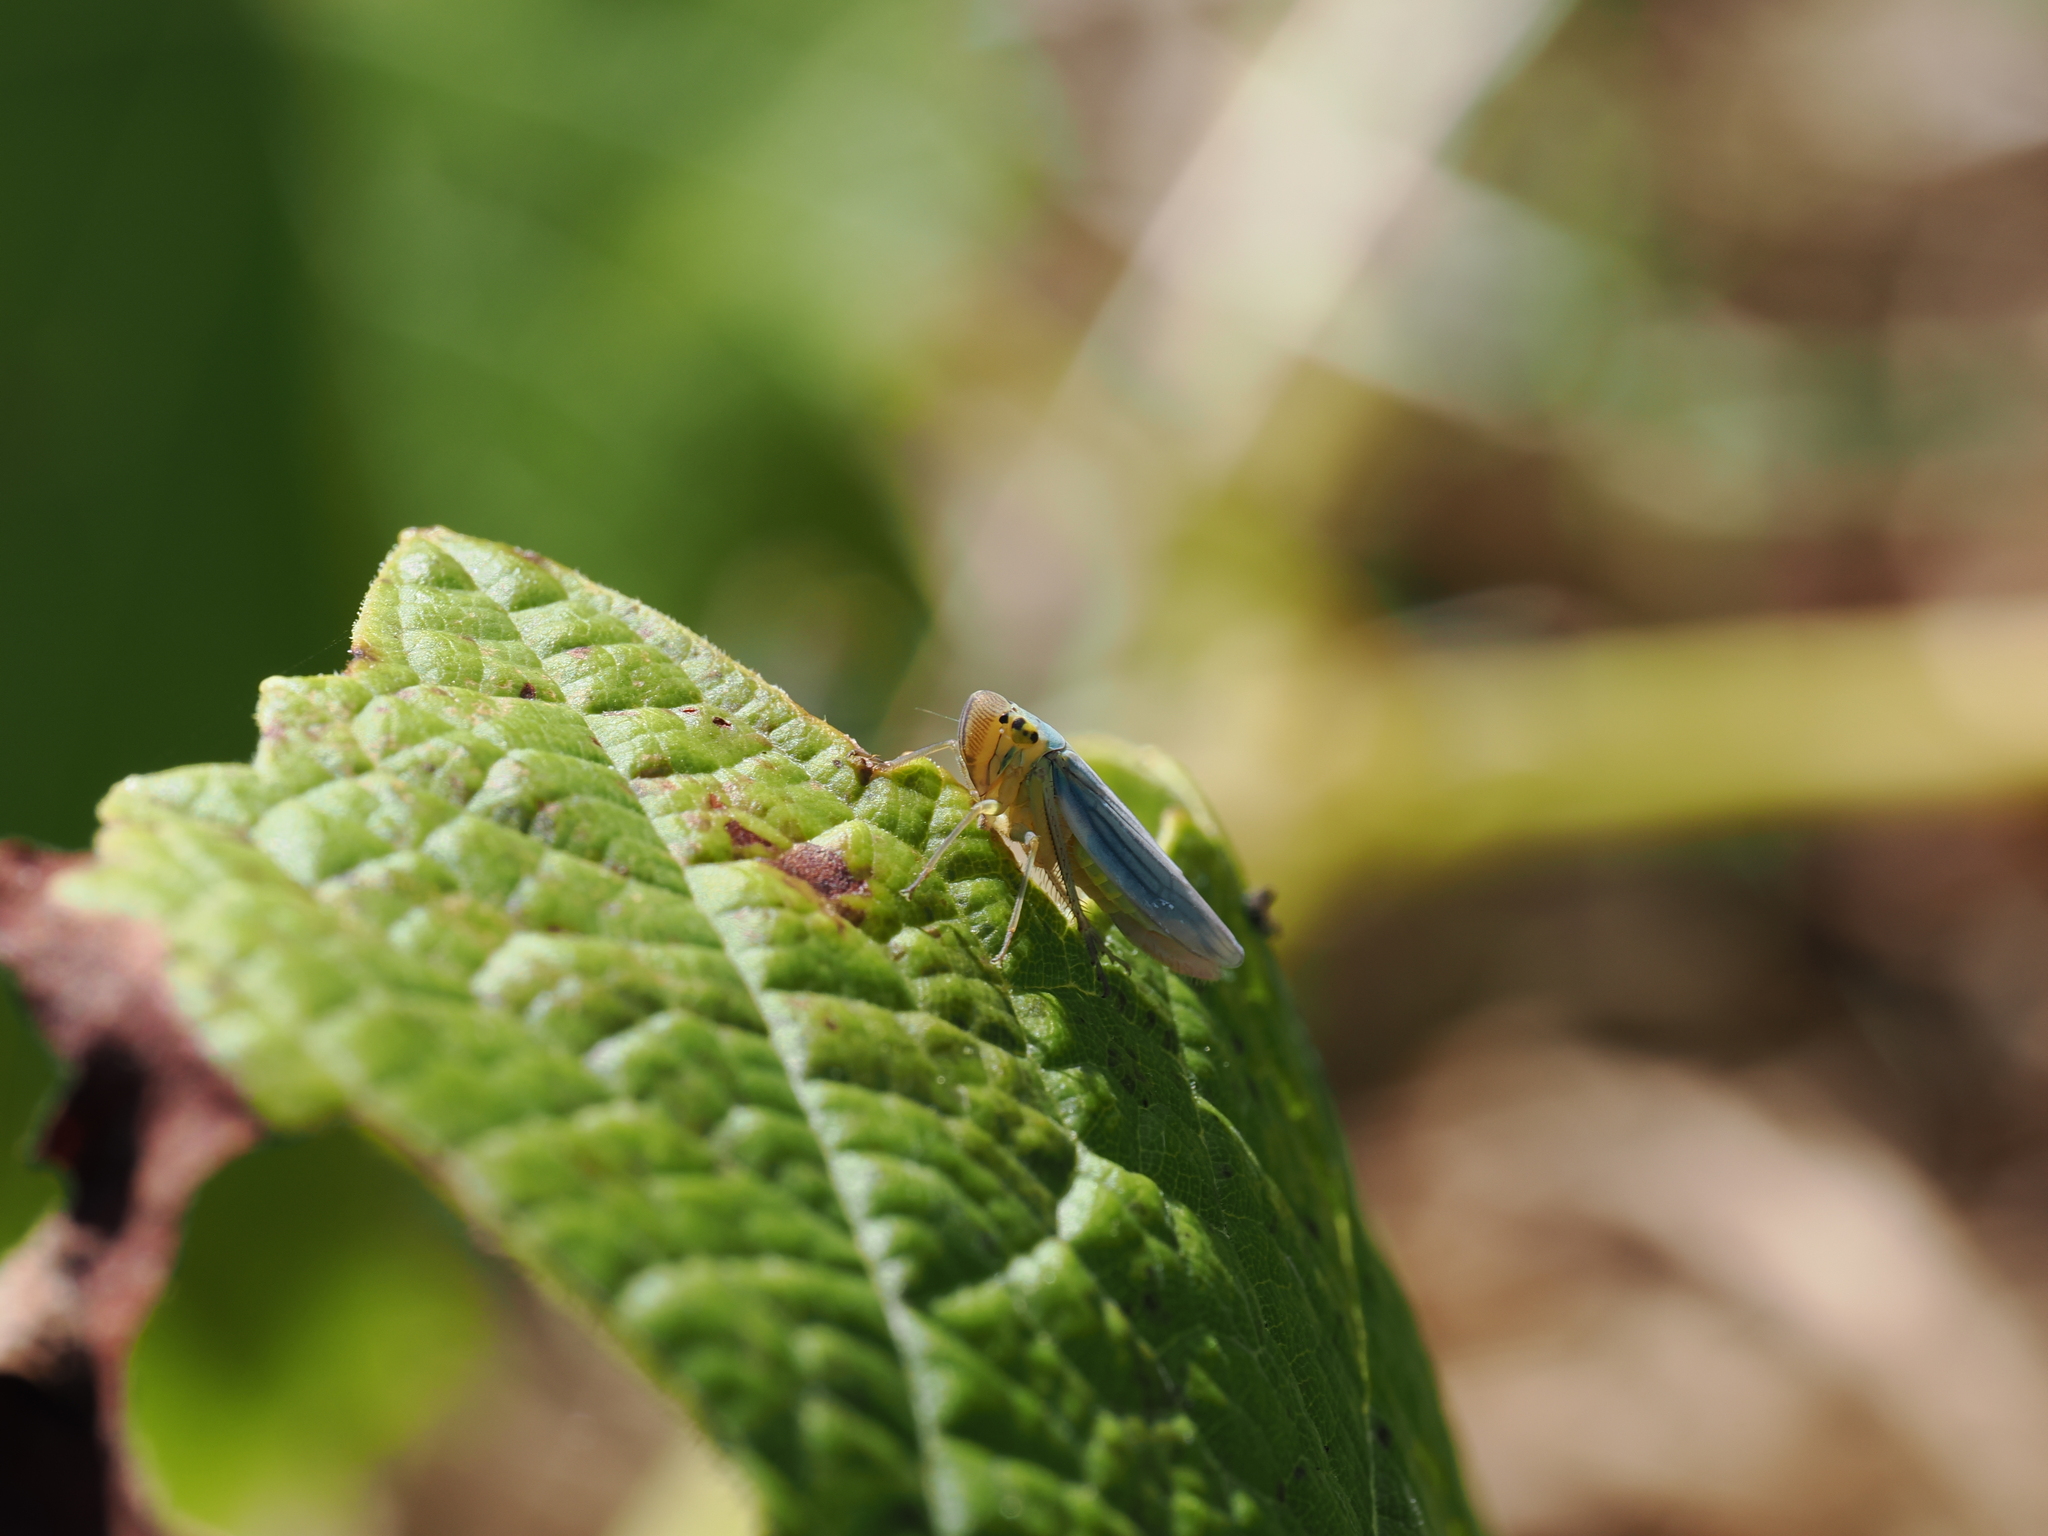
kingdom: Animalia
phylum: Arthropoda
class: Insecta
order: Hemiptera
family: Cicadellidae
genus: Cicadella
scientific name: Cicadella viridis
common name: Leafhopper
